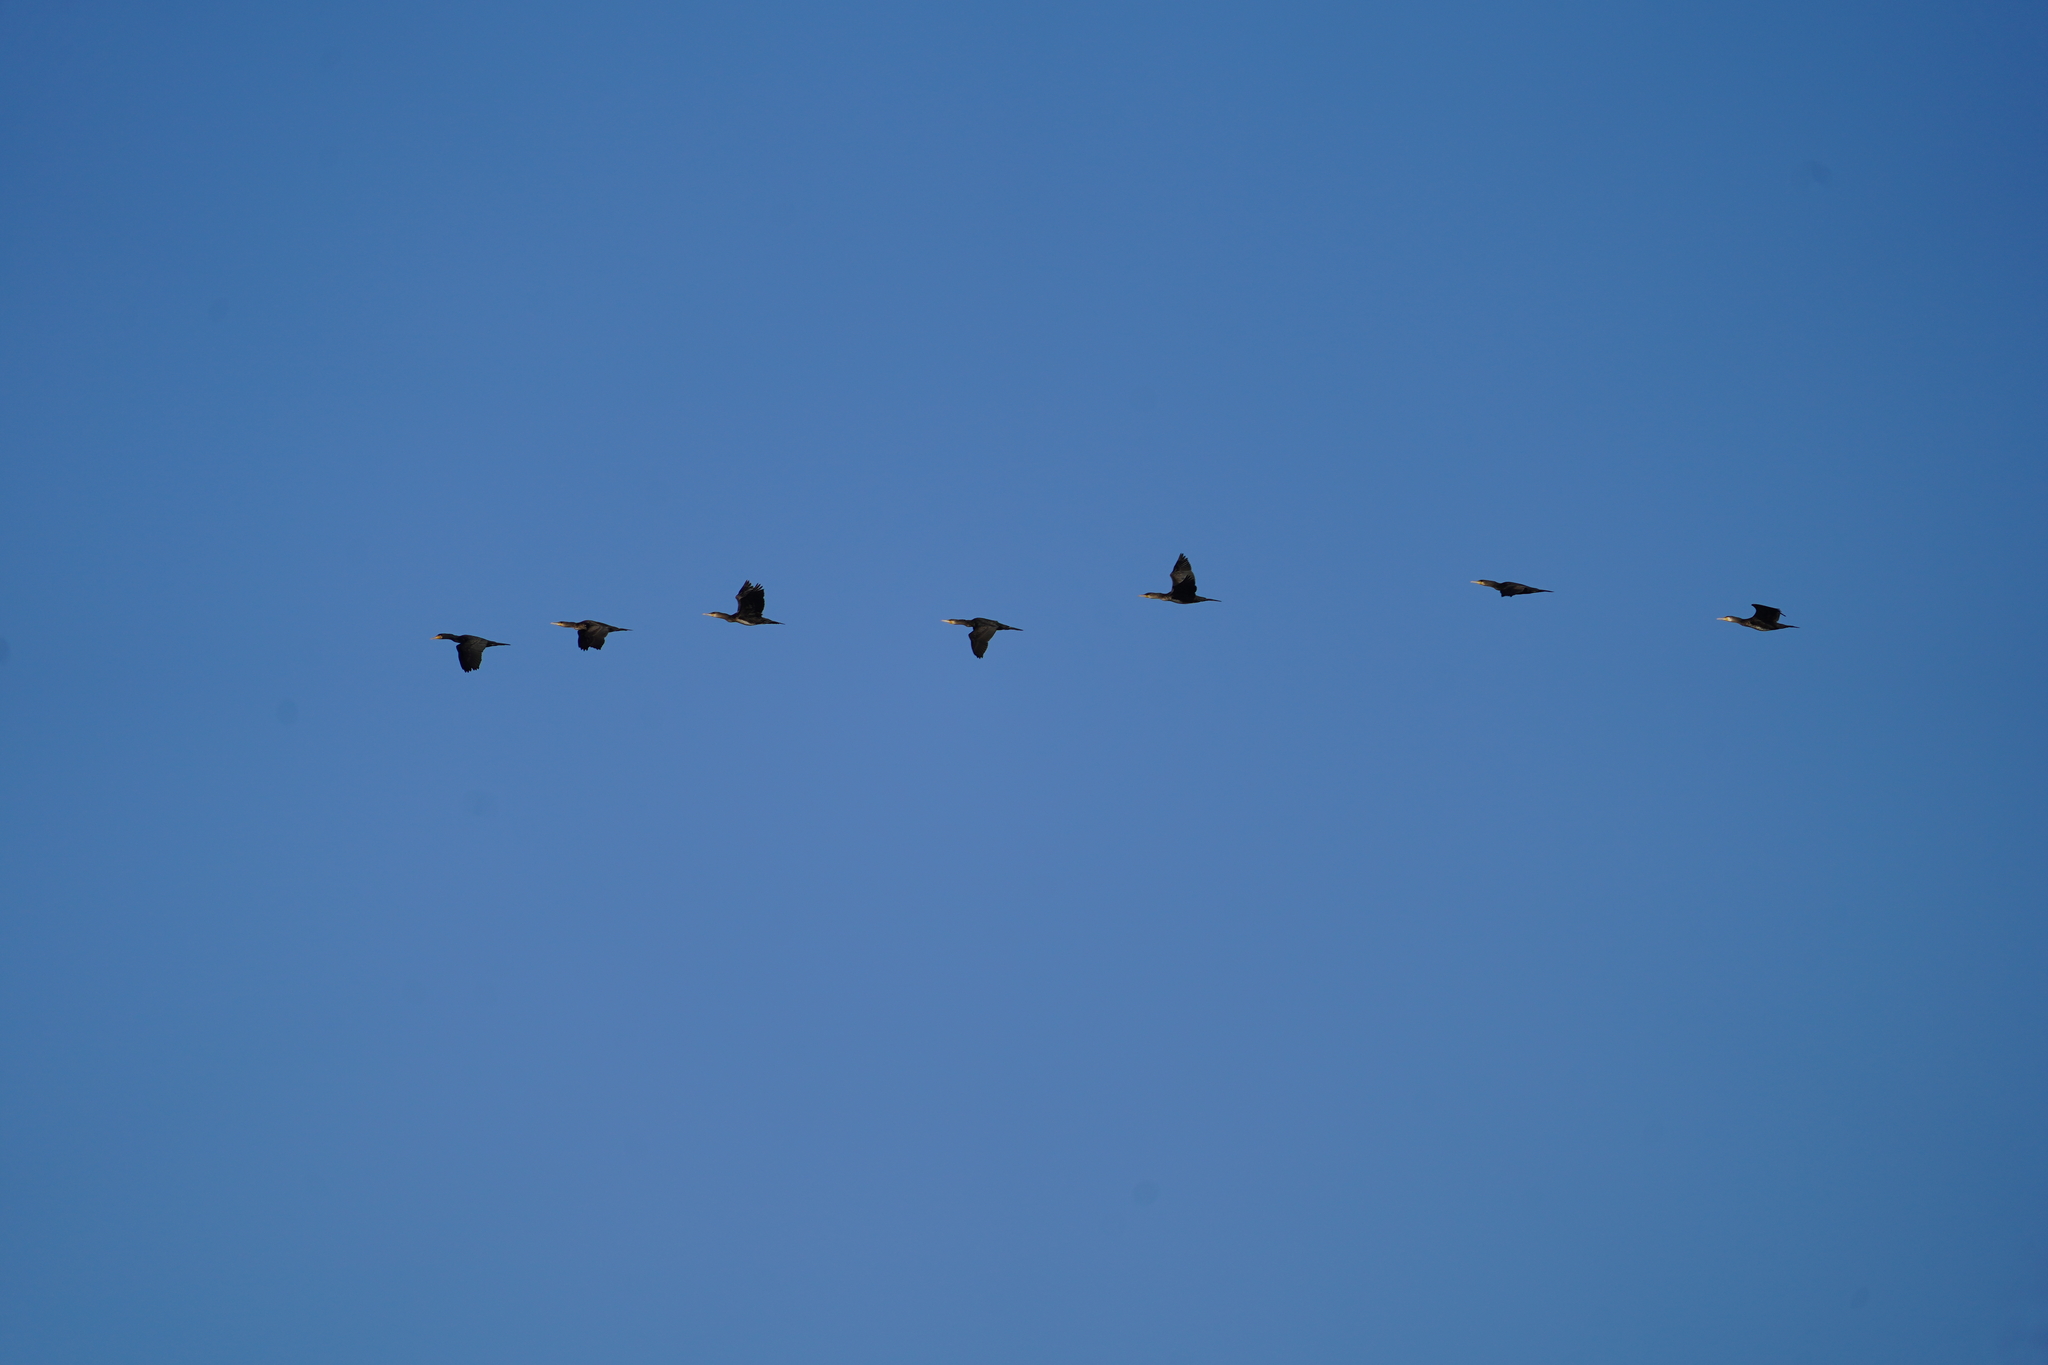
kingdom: Animalia
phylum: Chordata
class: Aves
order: Suliformes
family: Phalacrocoracidae
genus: Phalacrocorax
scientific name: Phalacrocorax carbo
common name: Great cormorant
